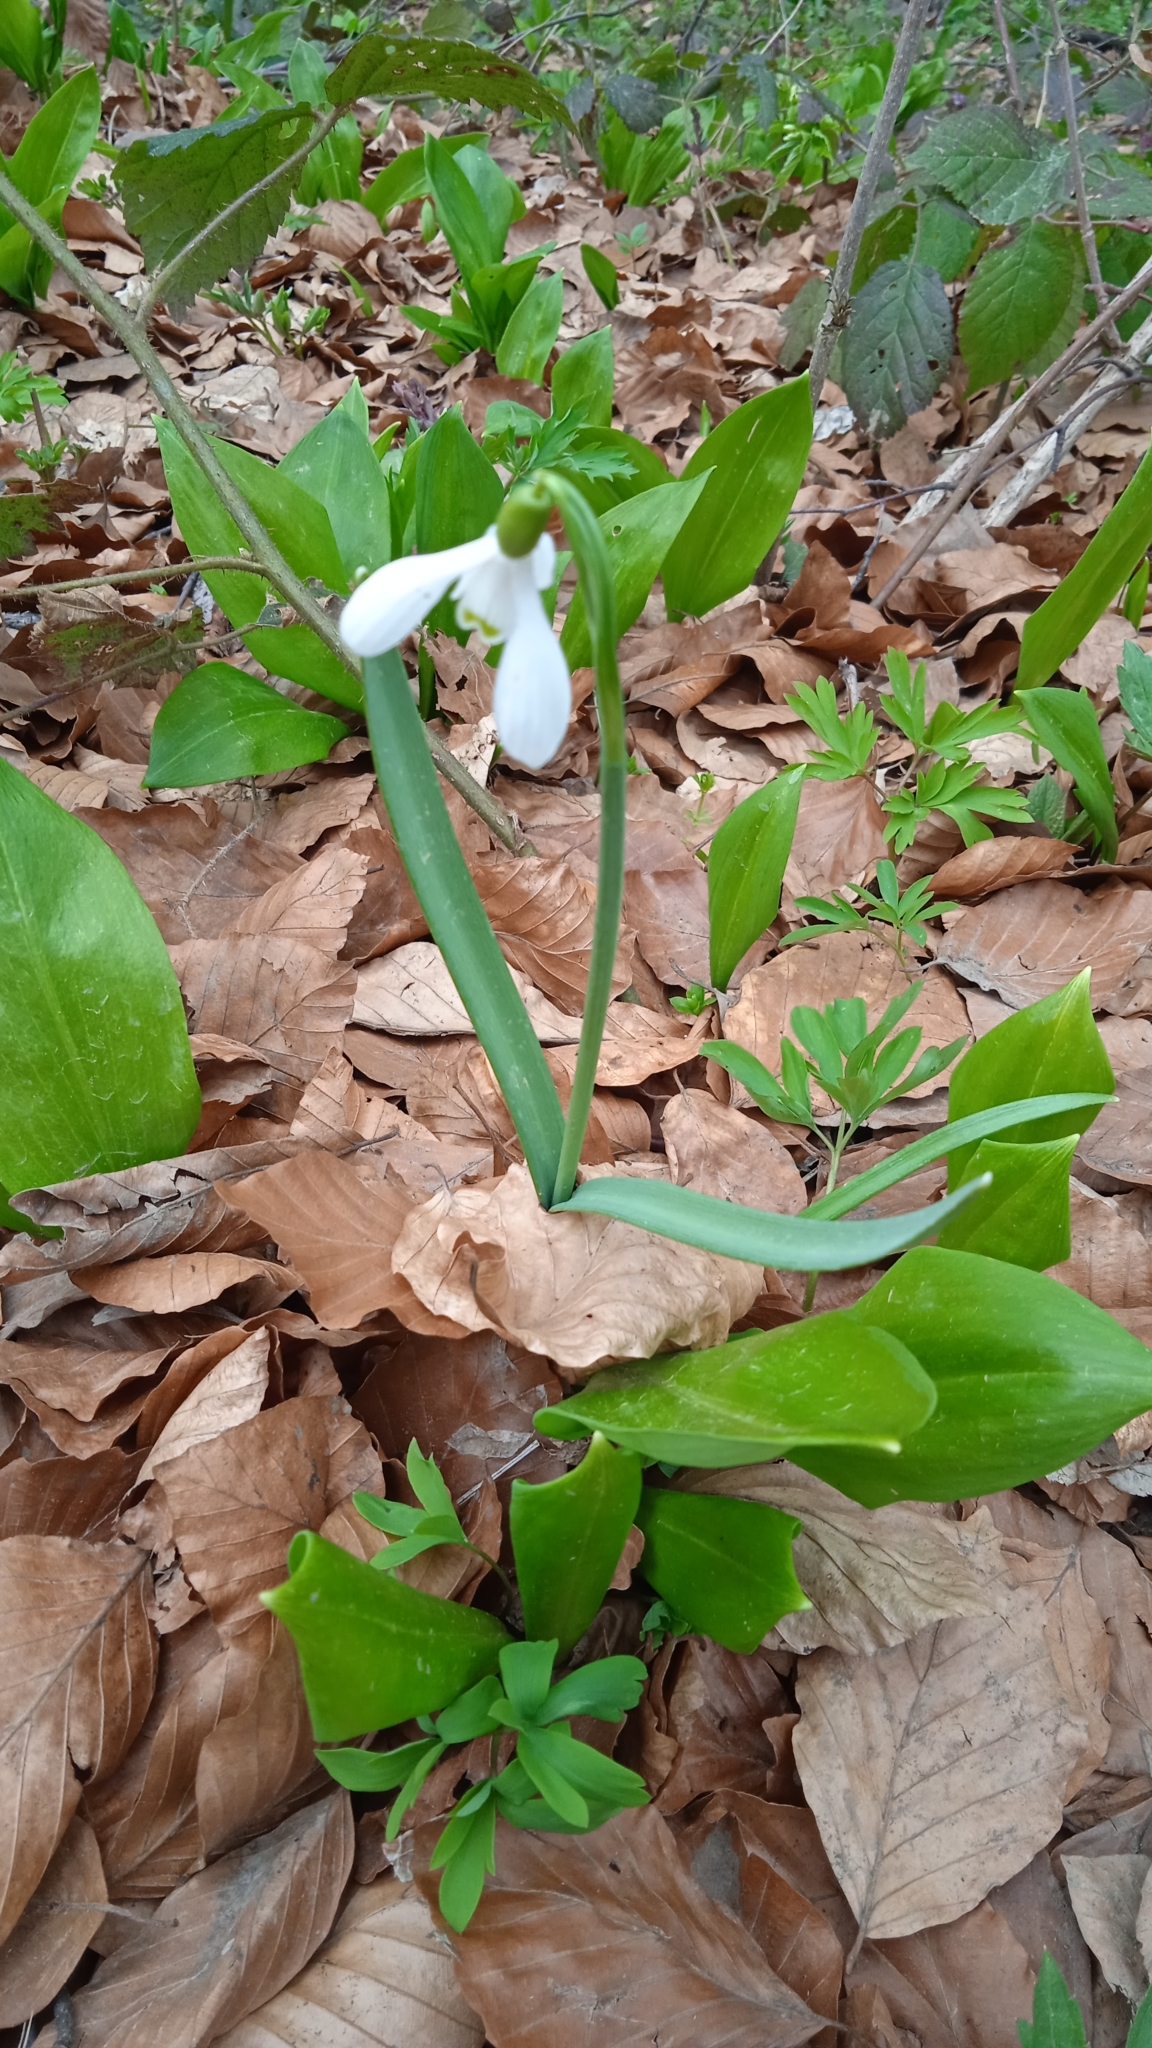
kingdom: Plantae
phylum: Tracheophyta
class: Liliopsida
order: Asparagales
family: Amaryllidaceae
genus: Galanthus
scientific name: Galanthus nivalis
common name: Snowdrop
